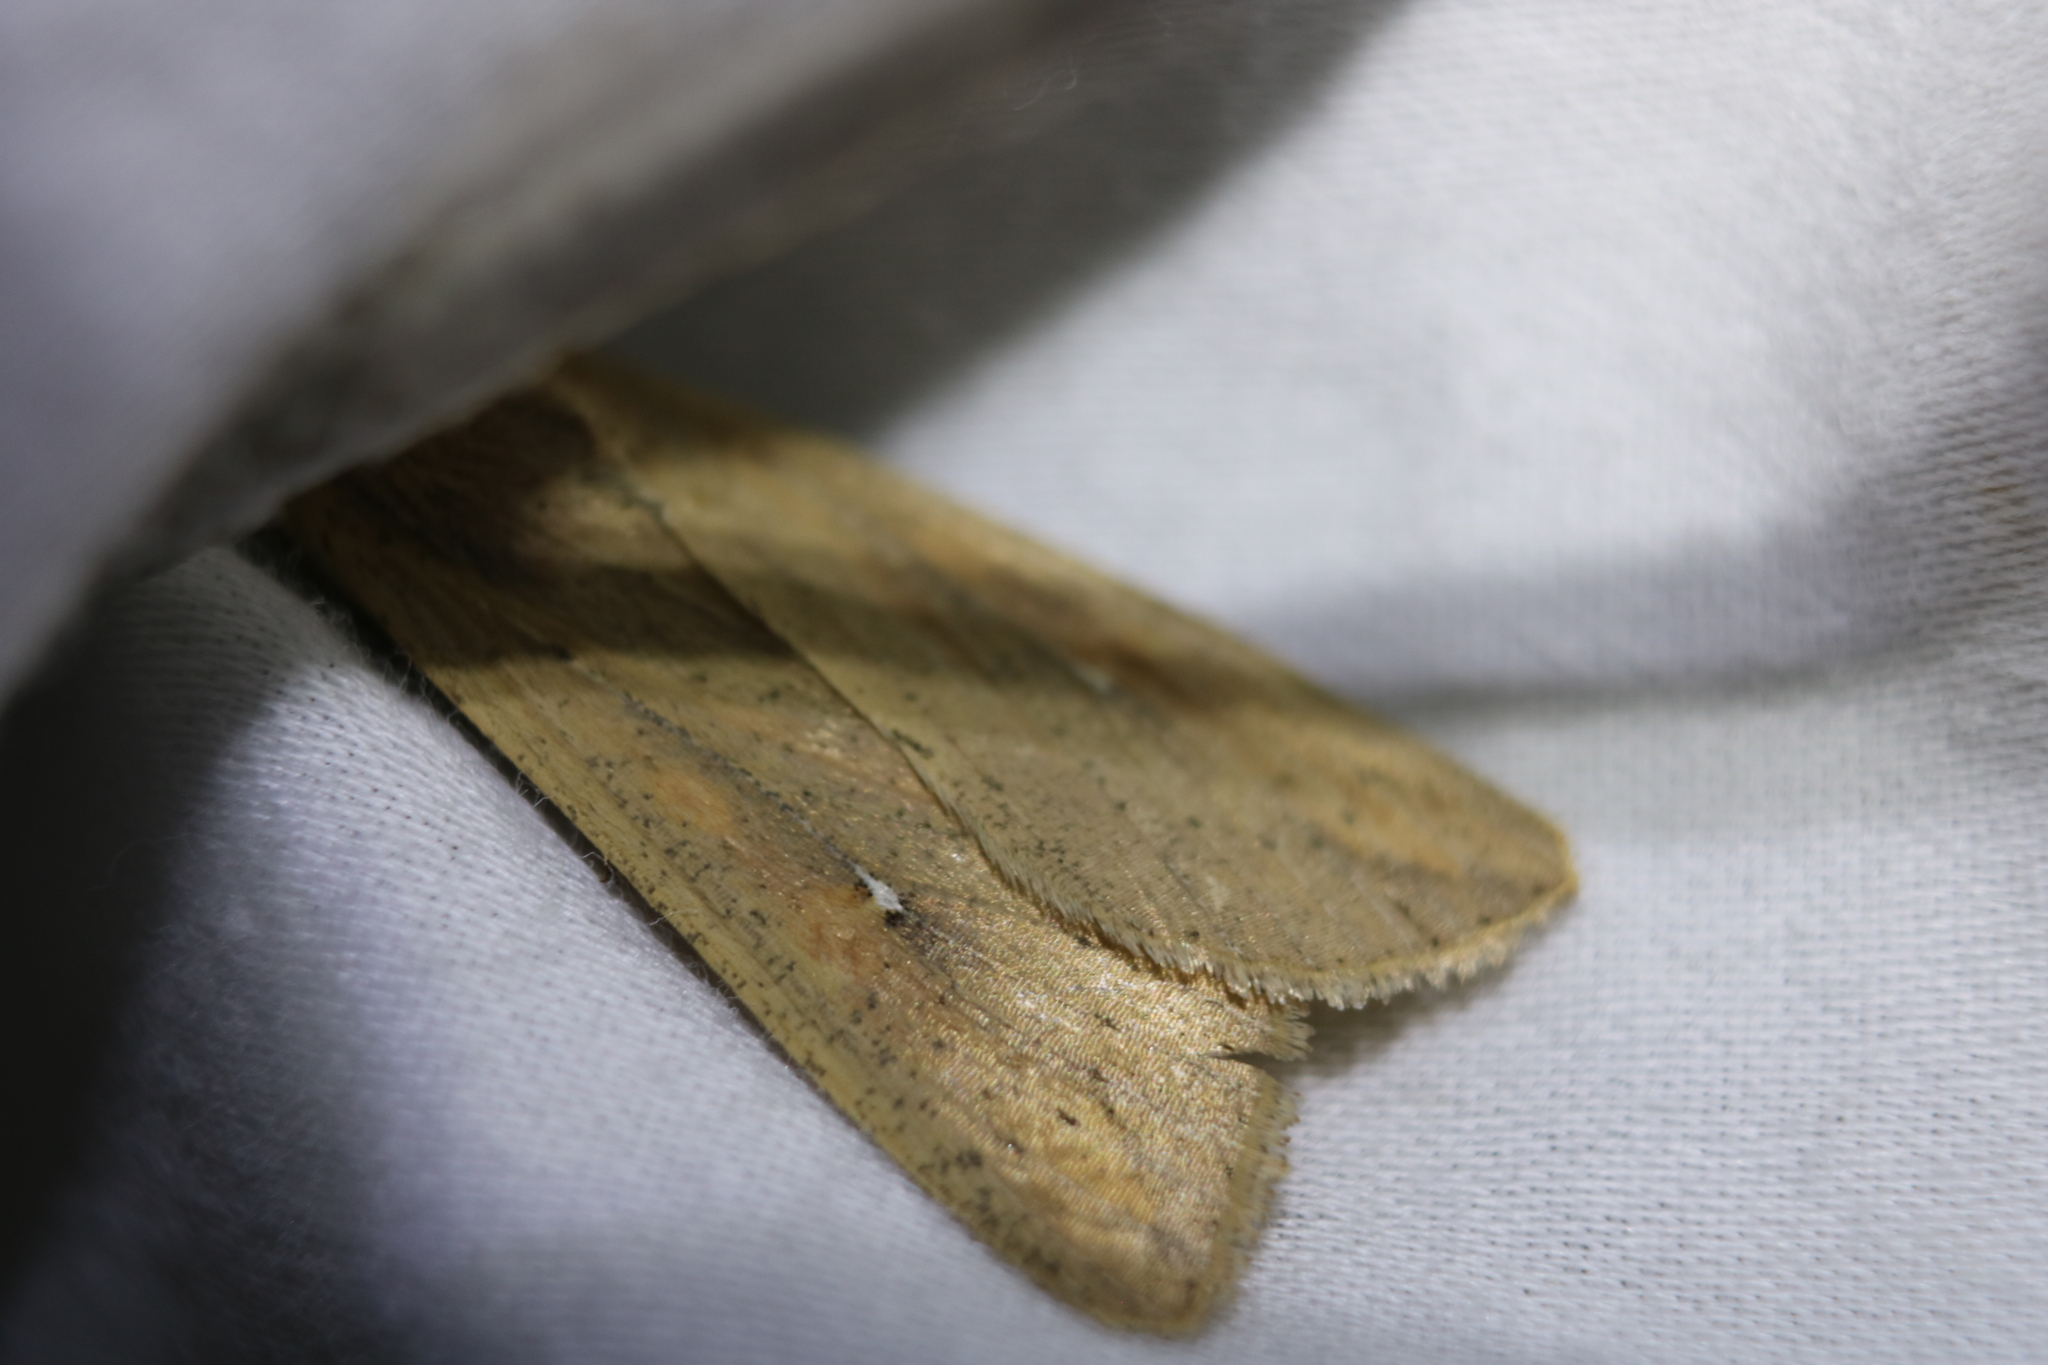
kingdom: Animalia
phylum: Arthropoda
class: Insecta
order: Lepidoptera
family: Noctuidae
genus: Mythimna
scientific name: Mythimna unipuncta
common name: White-speck
